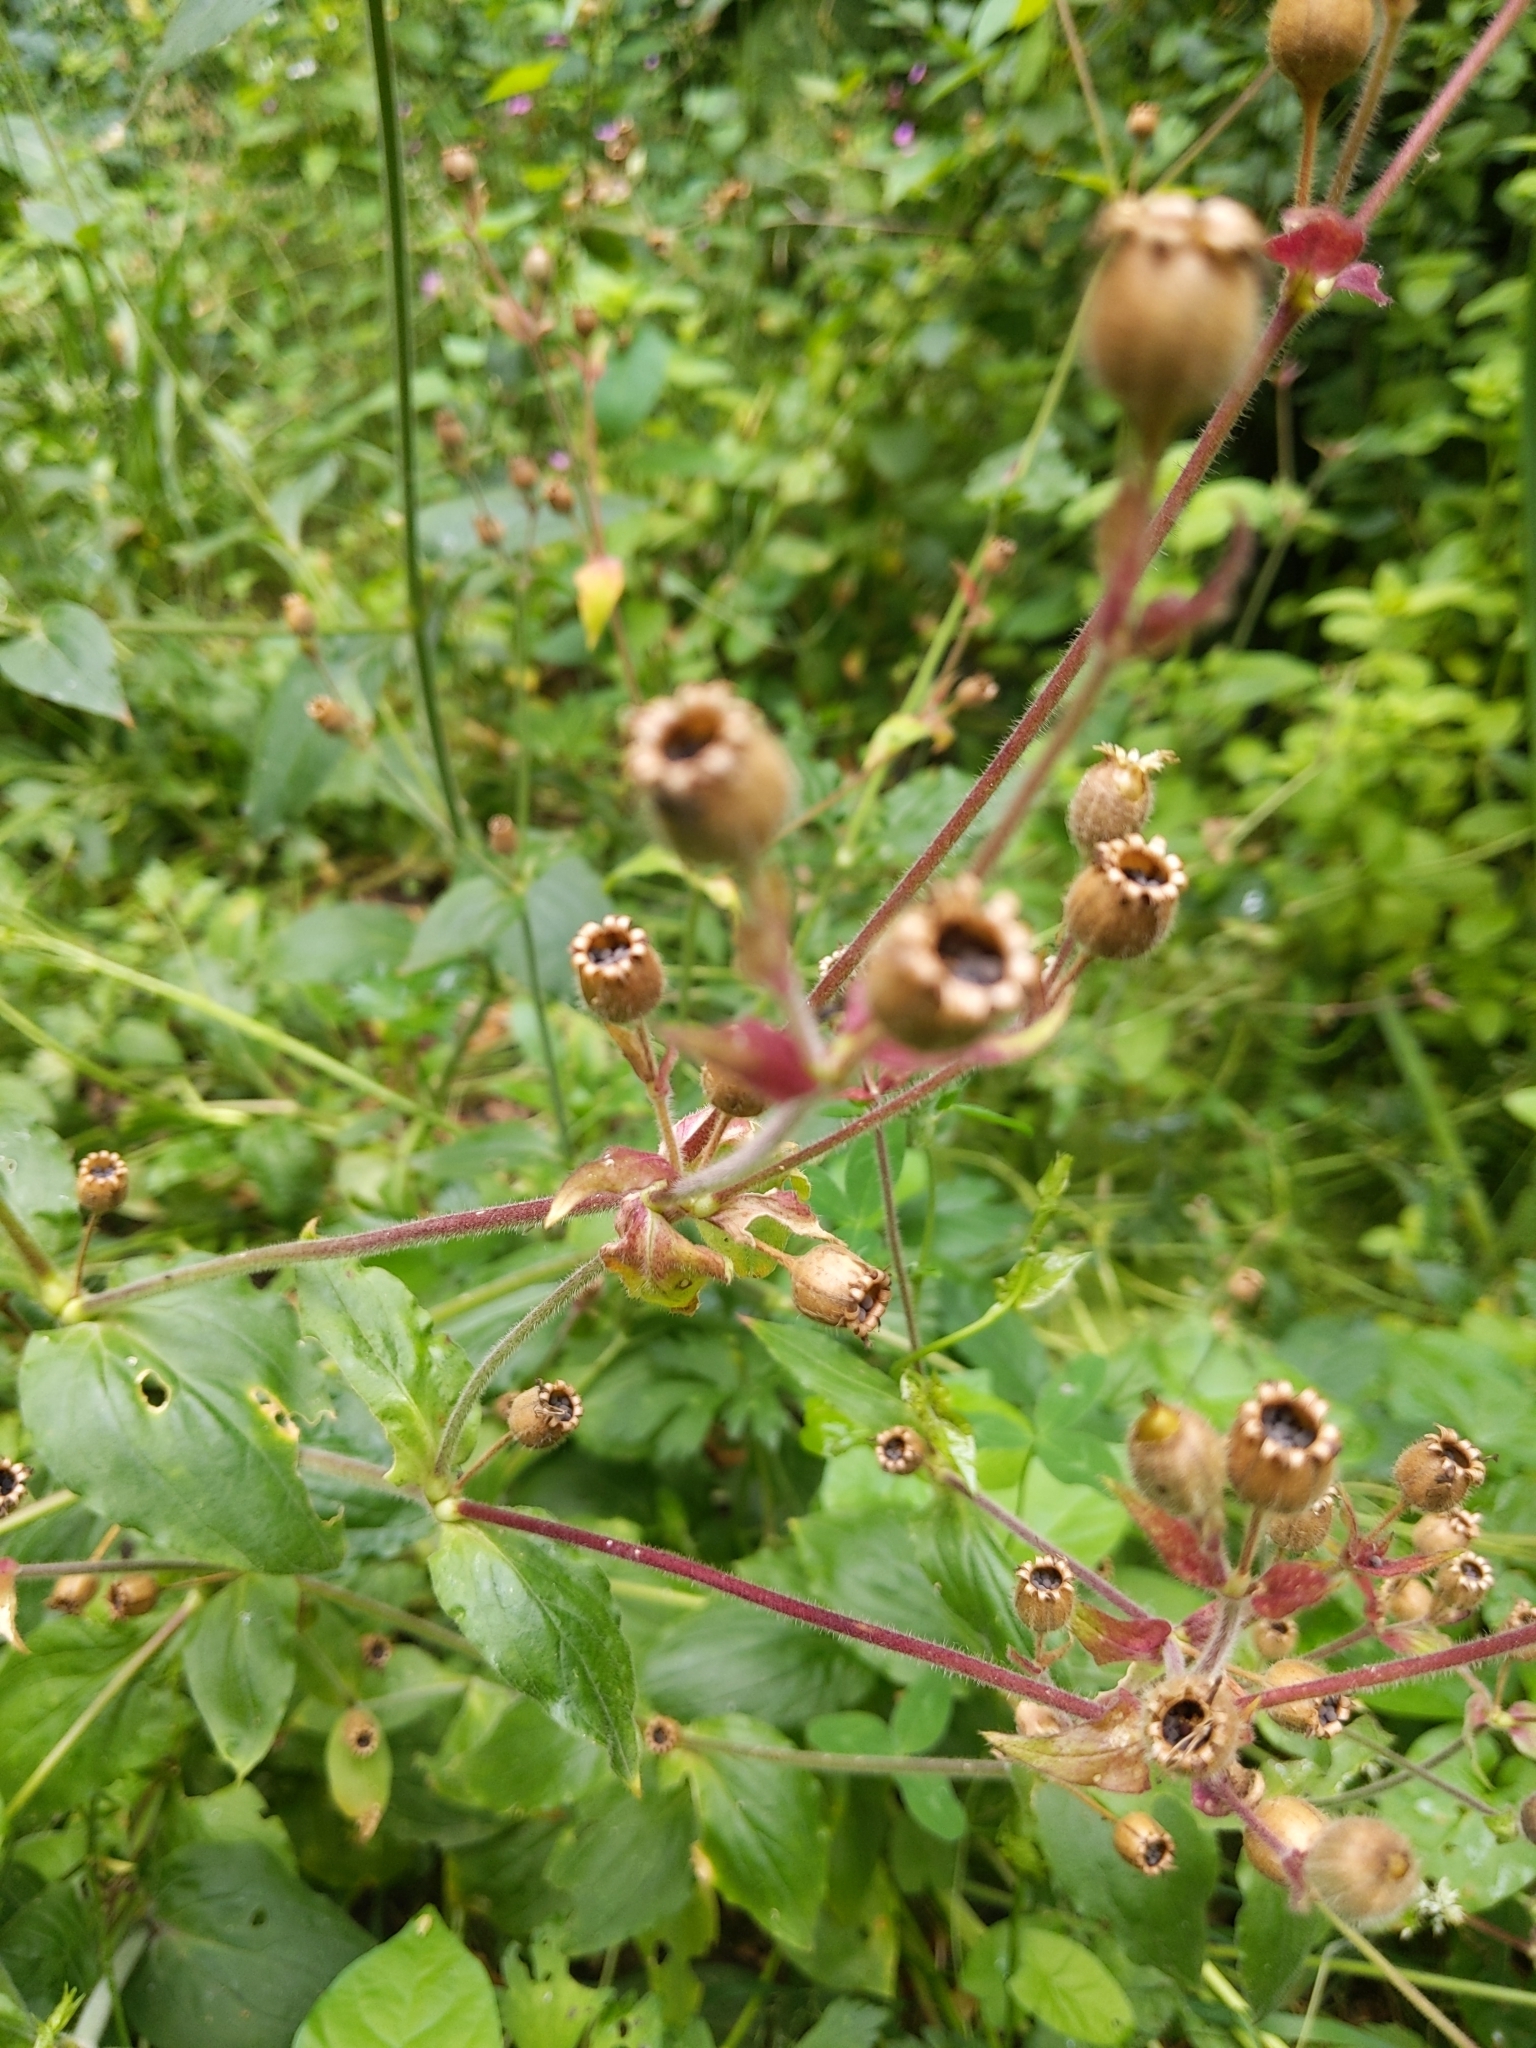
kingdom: Plantae
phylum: Tracheophyta
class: Magnoliopsida
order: Caryophyllales
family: Caryophyllaceae
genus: Silene
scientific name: Silene dioica
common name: Red campion
